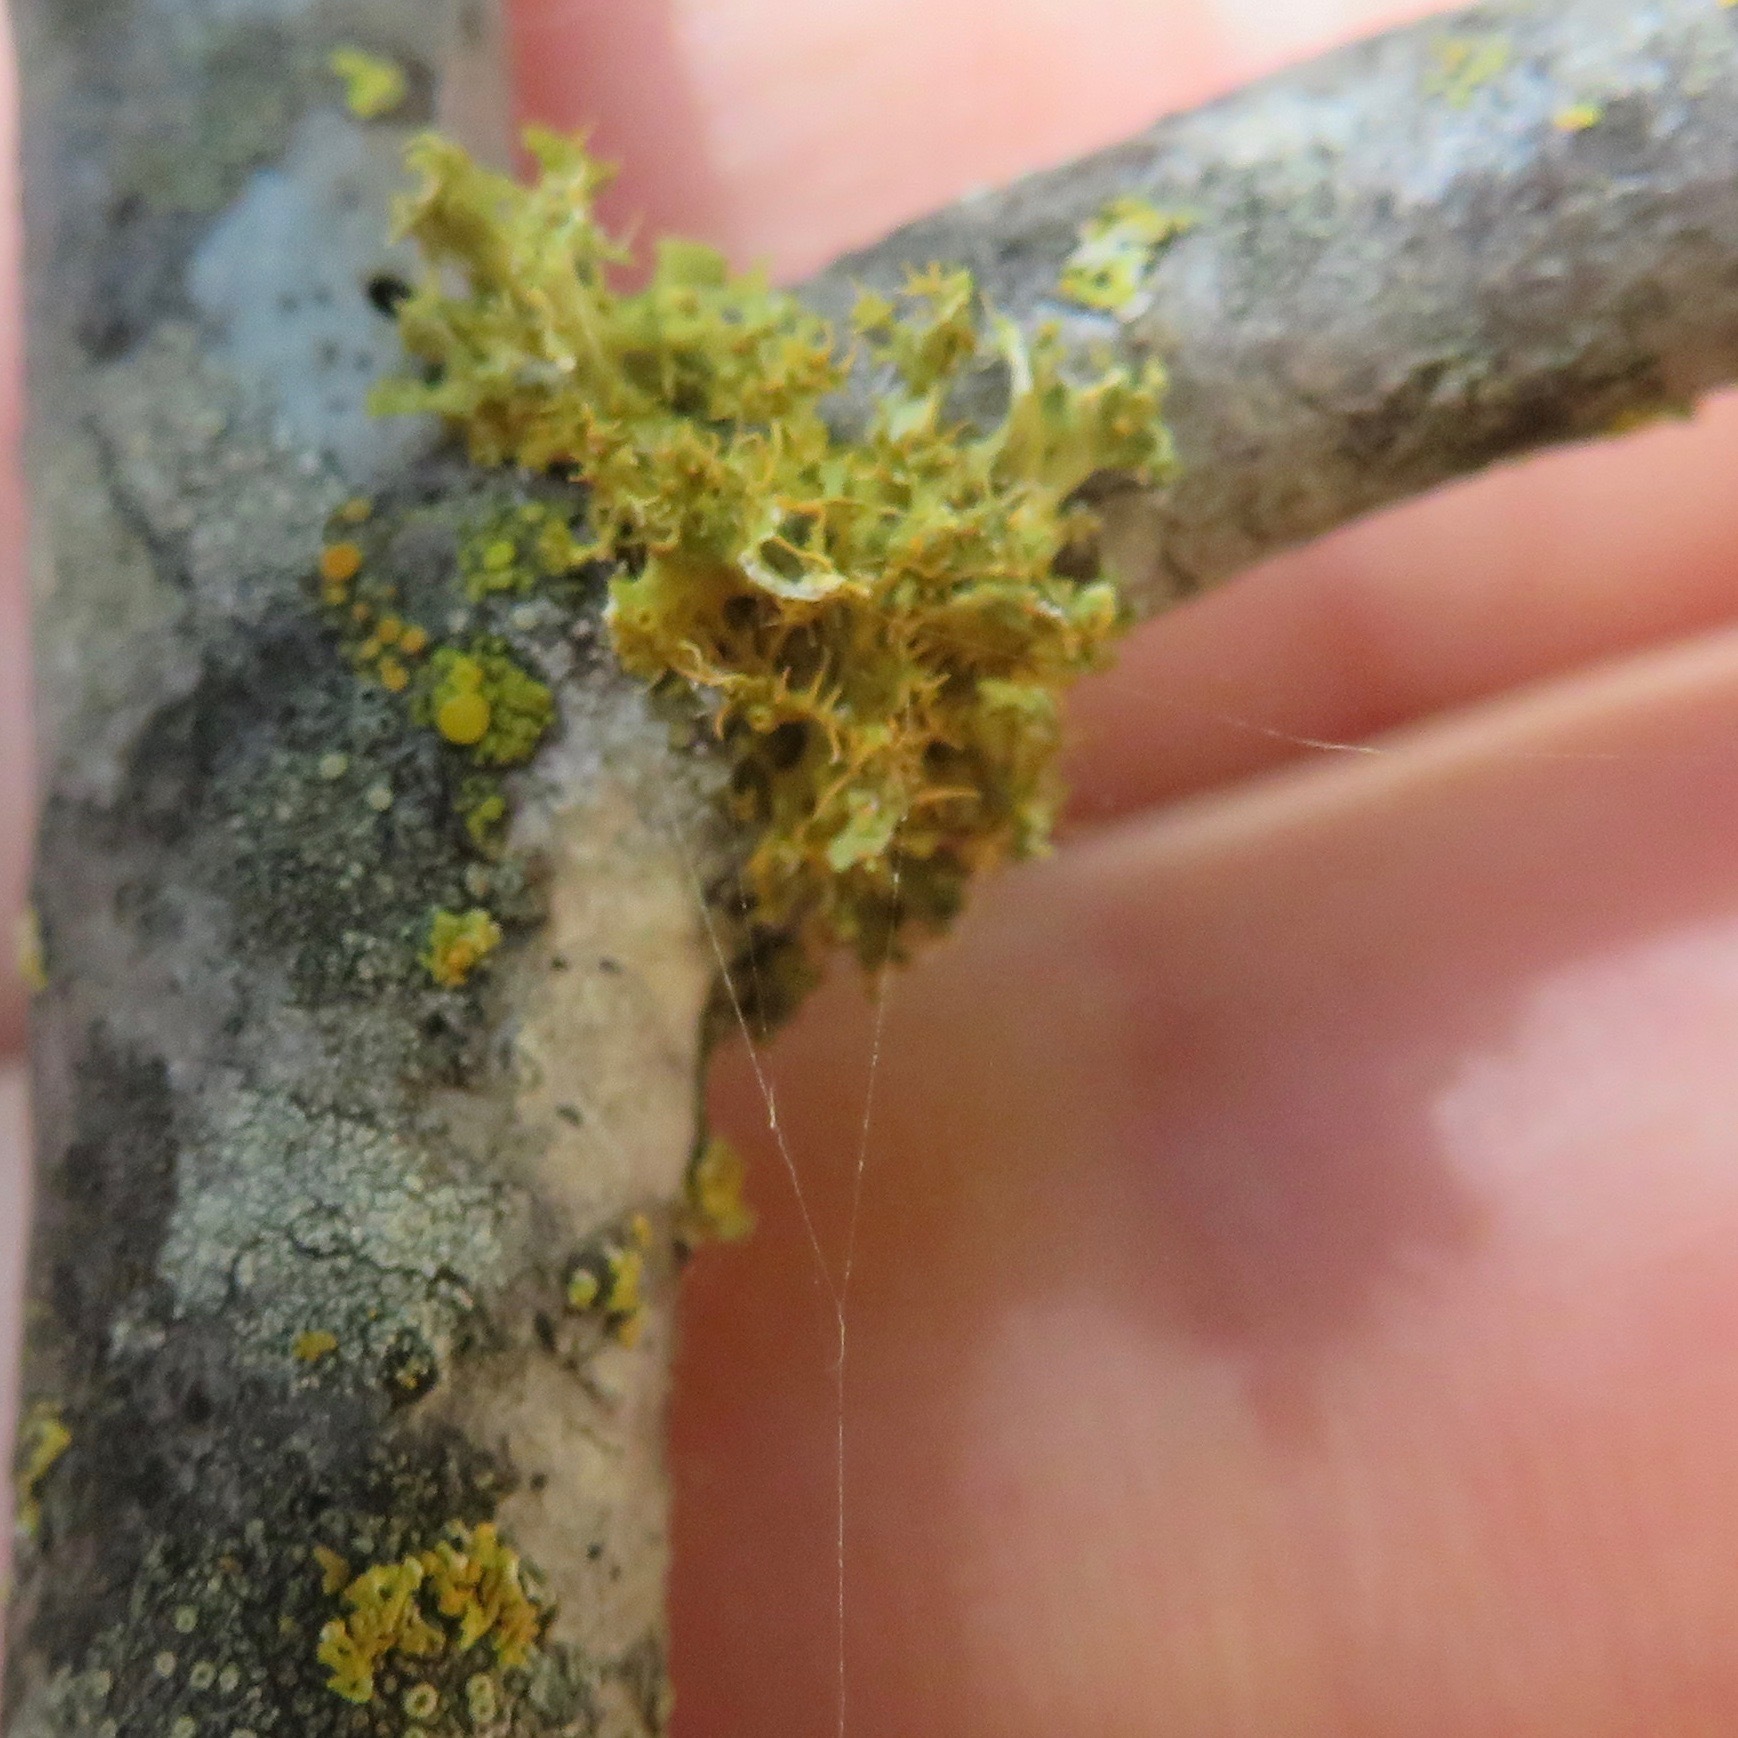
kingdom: Fungi
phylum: Ascomycota
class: Lecanoromycetes
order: Teloschistales
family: Teloschistaceae
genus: Niorma
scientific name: Niorma chrysophthalma
